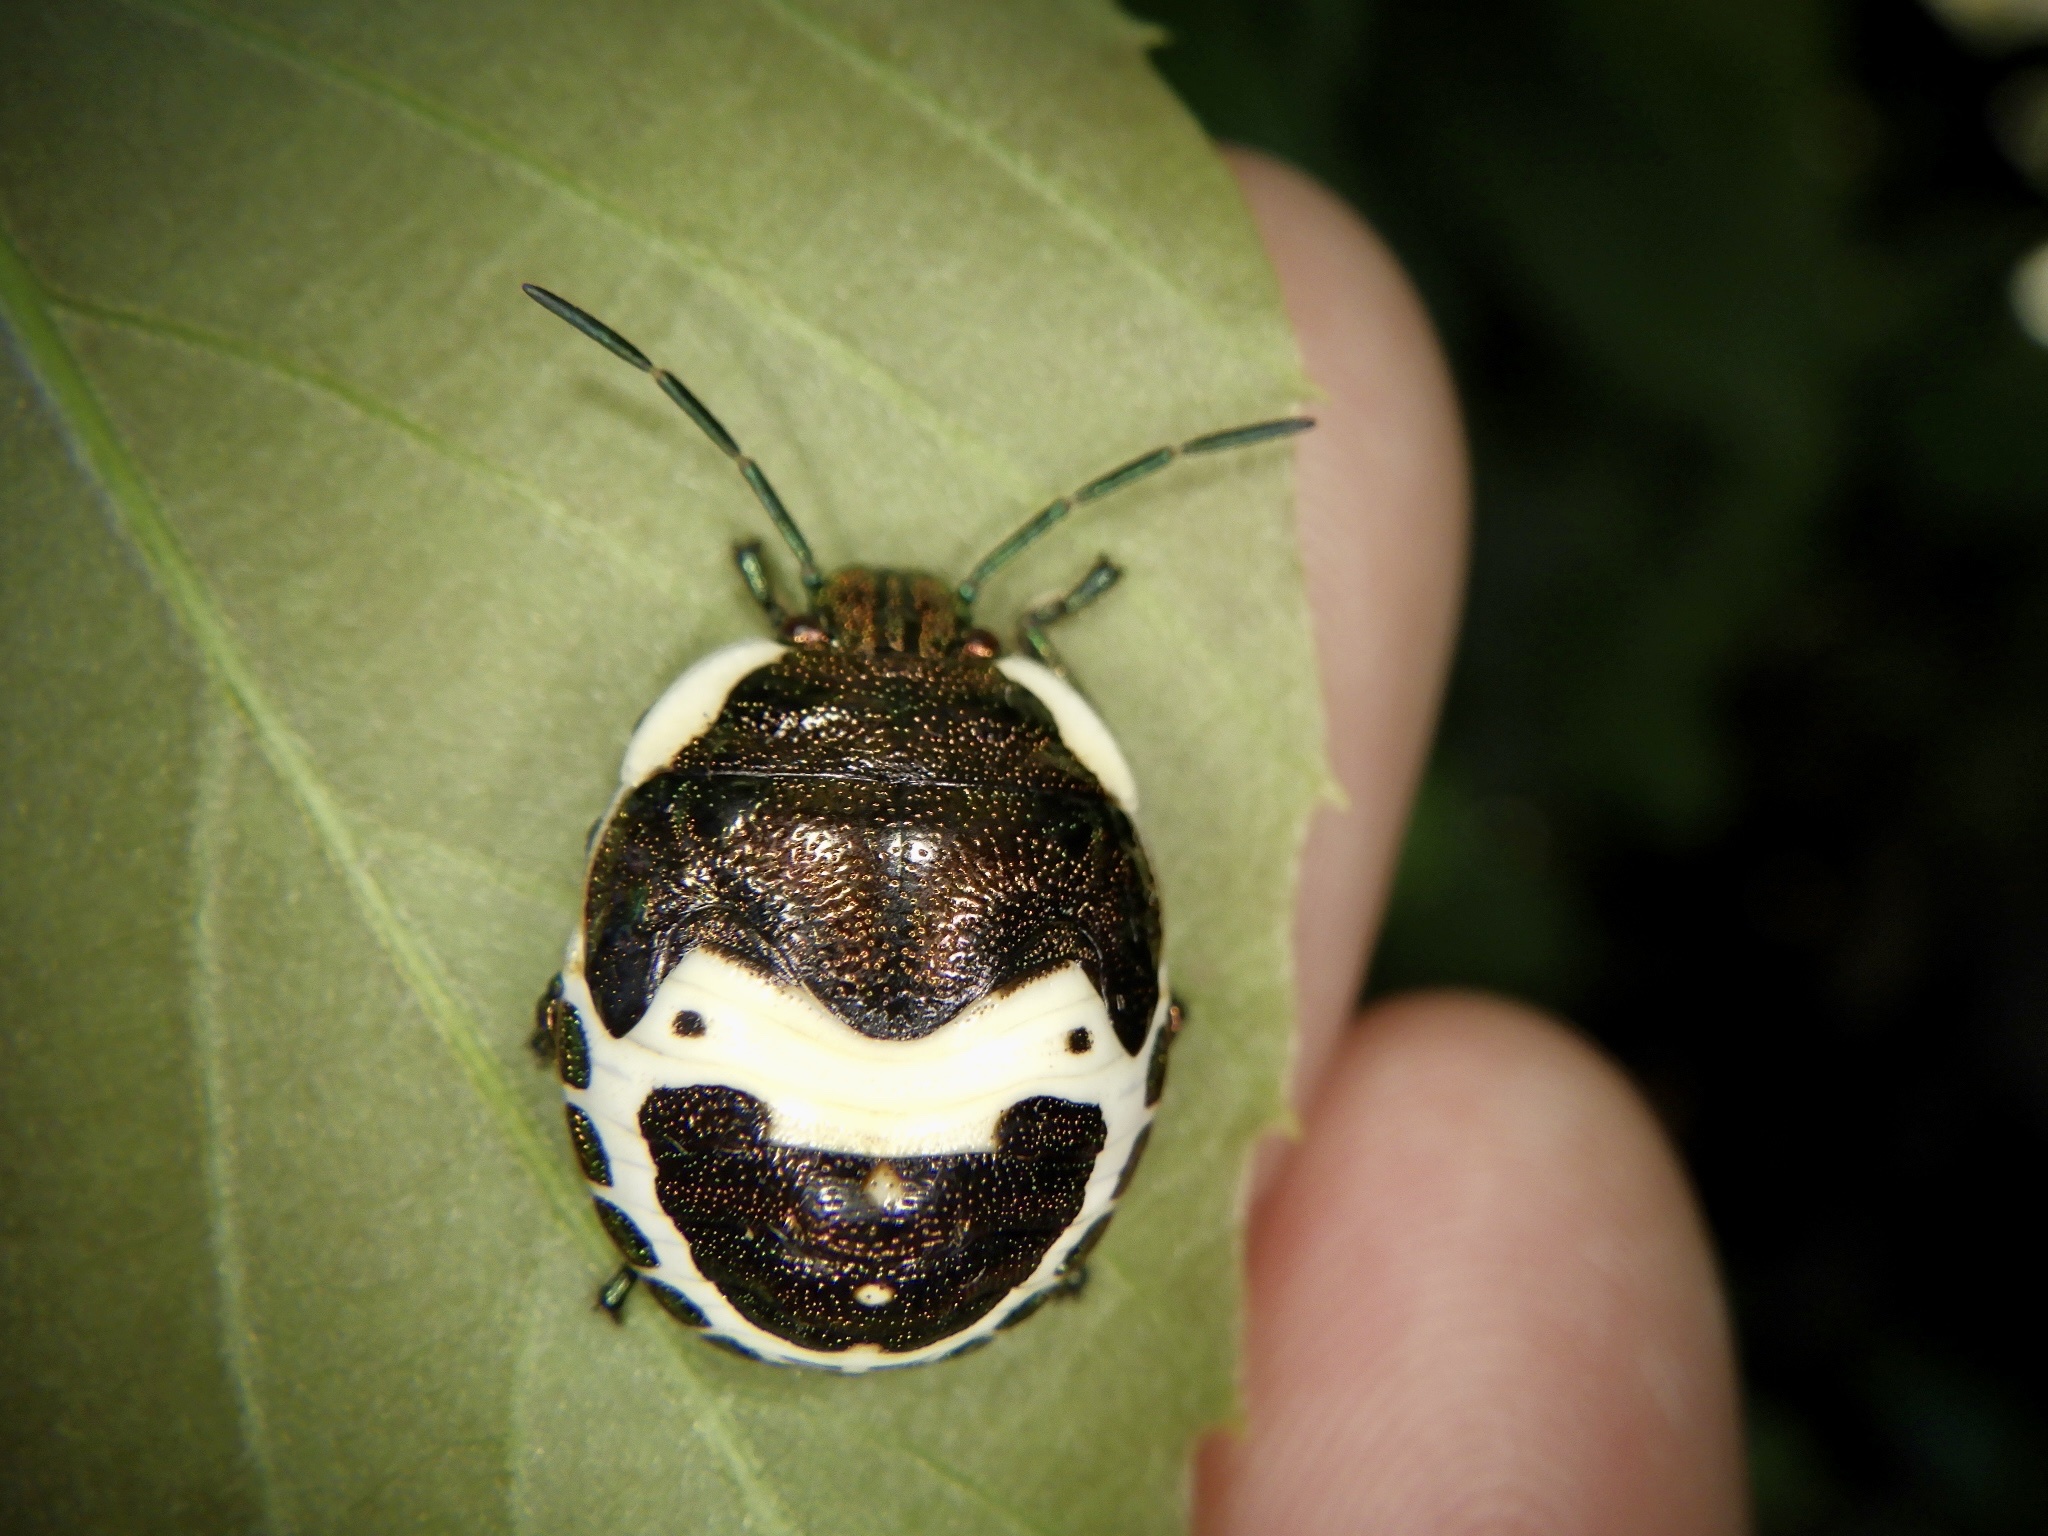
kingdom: Animalia
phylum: Arthropoda
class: Insecta
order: Hemiptera
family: Scutelleridae
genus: Poecilocoris
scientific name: Poecilocoris lewisi
